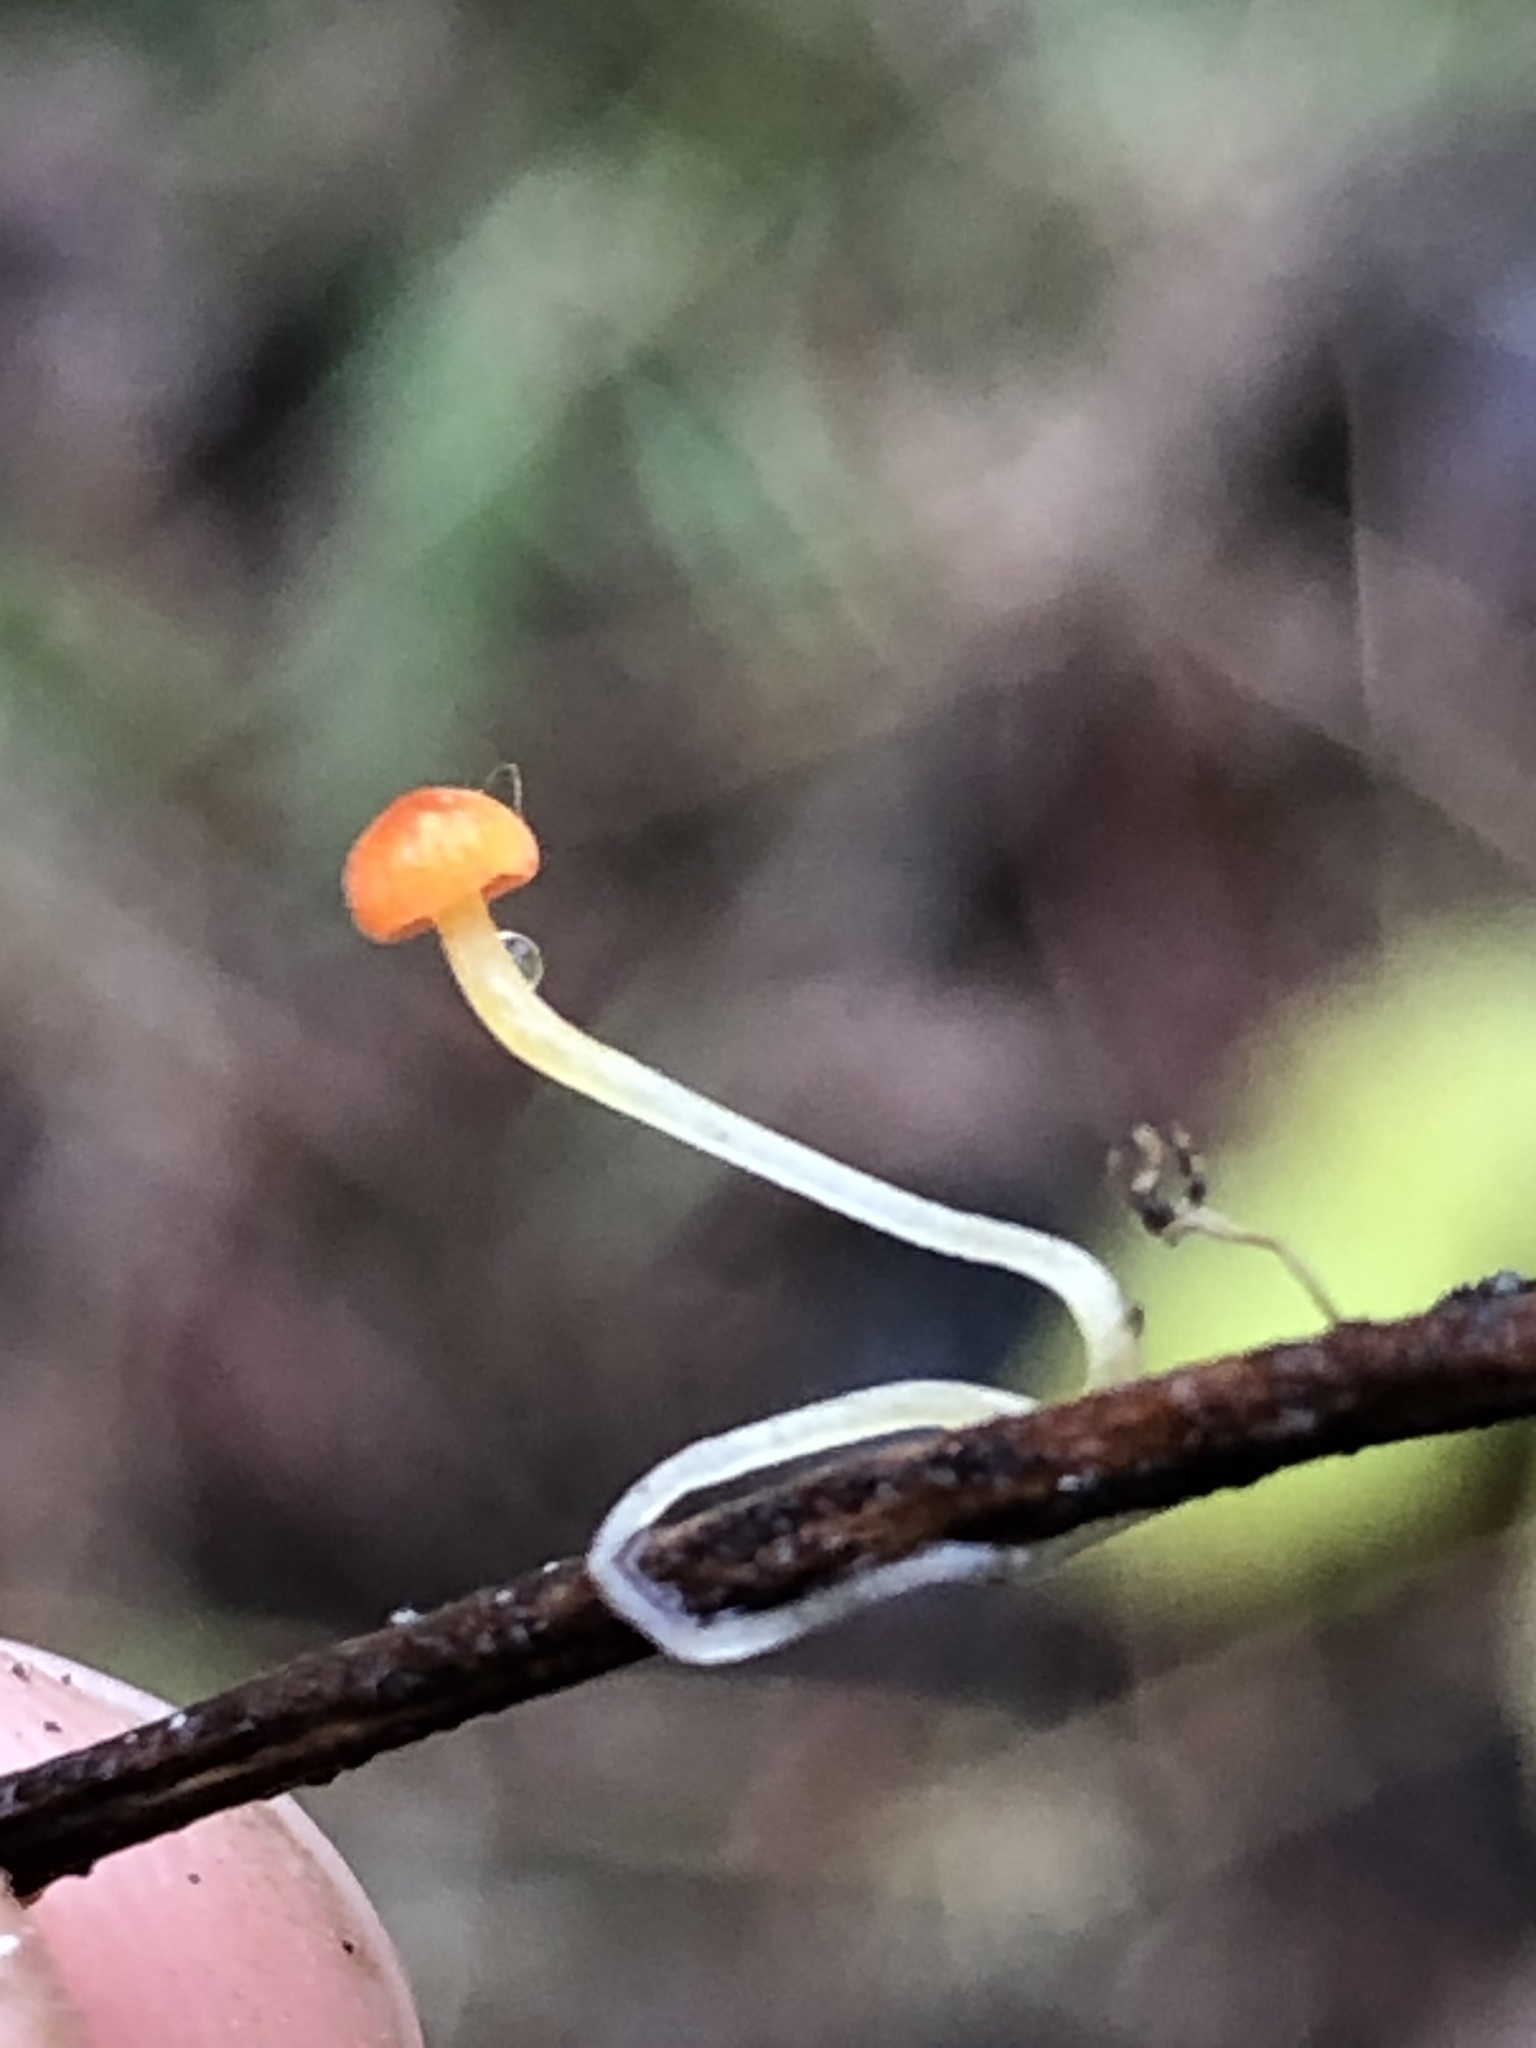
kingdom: Fungi
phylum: Basidiomycota
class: Agaricomycetes
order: Agaricales
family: Mycenaceae
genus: Mycena
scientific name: Mycena acicula
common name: Orange bonnet
